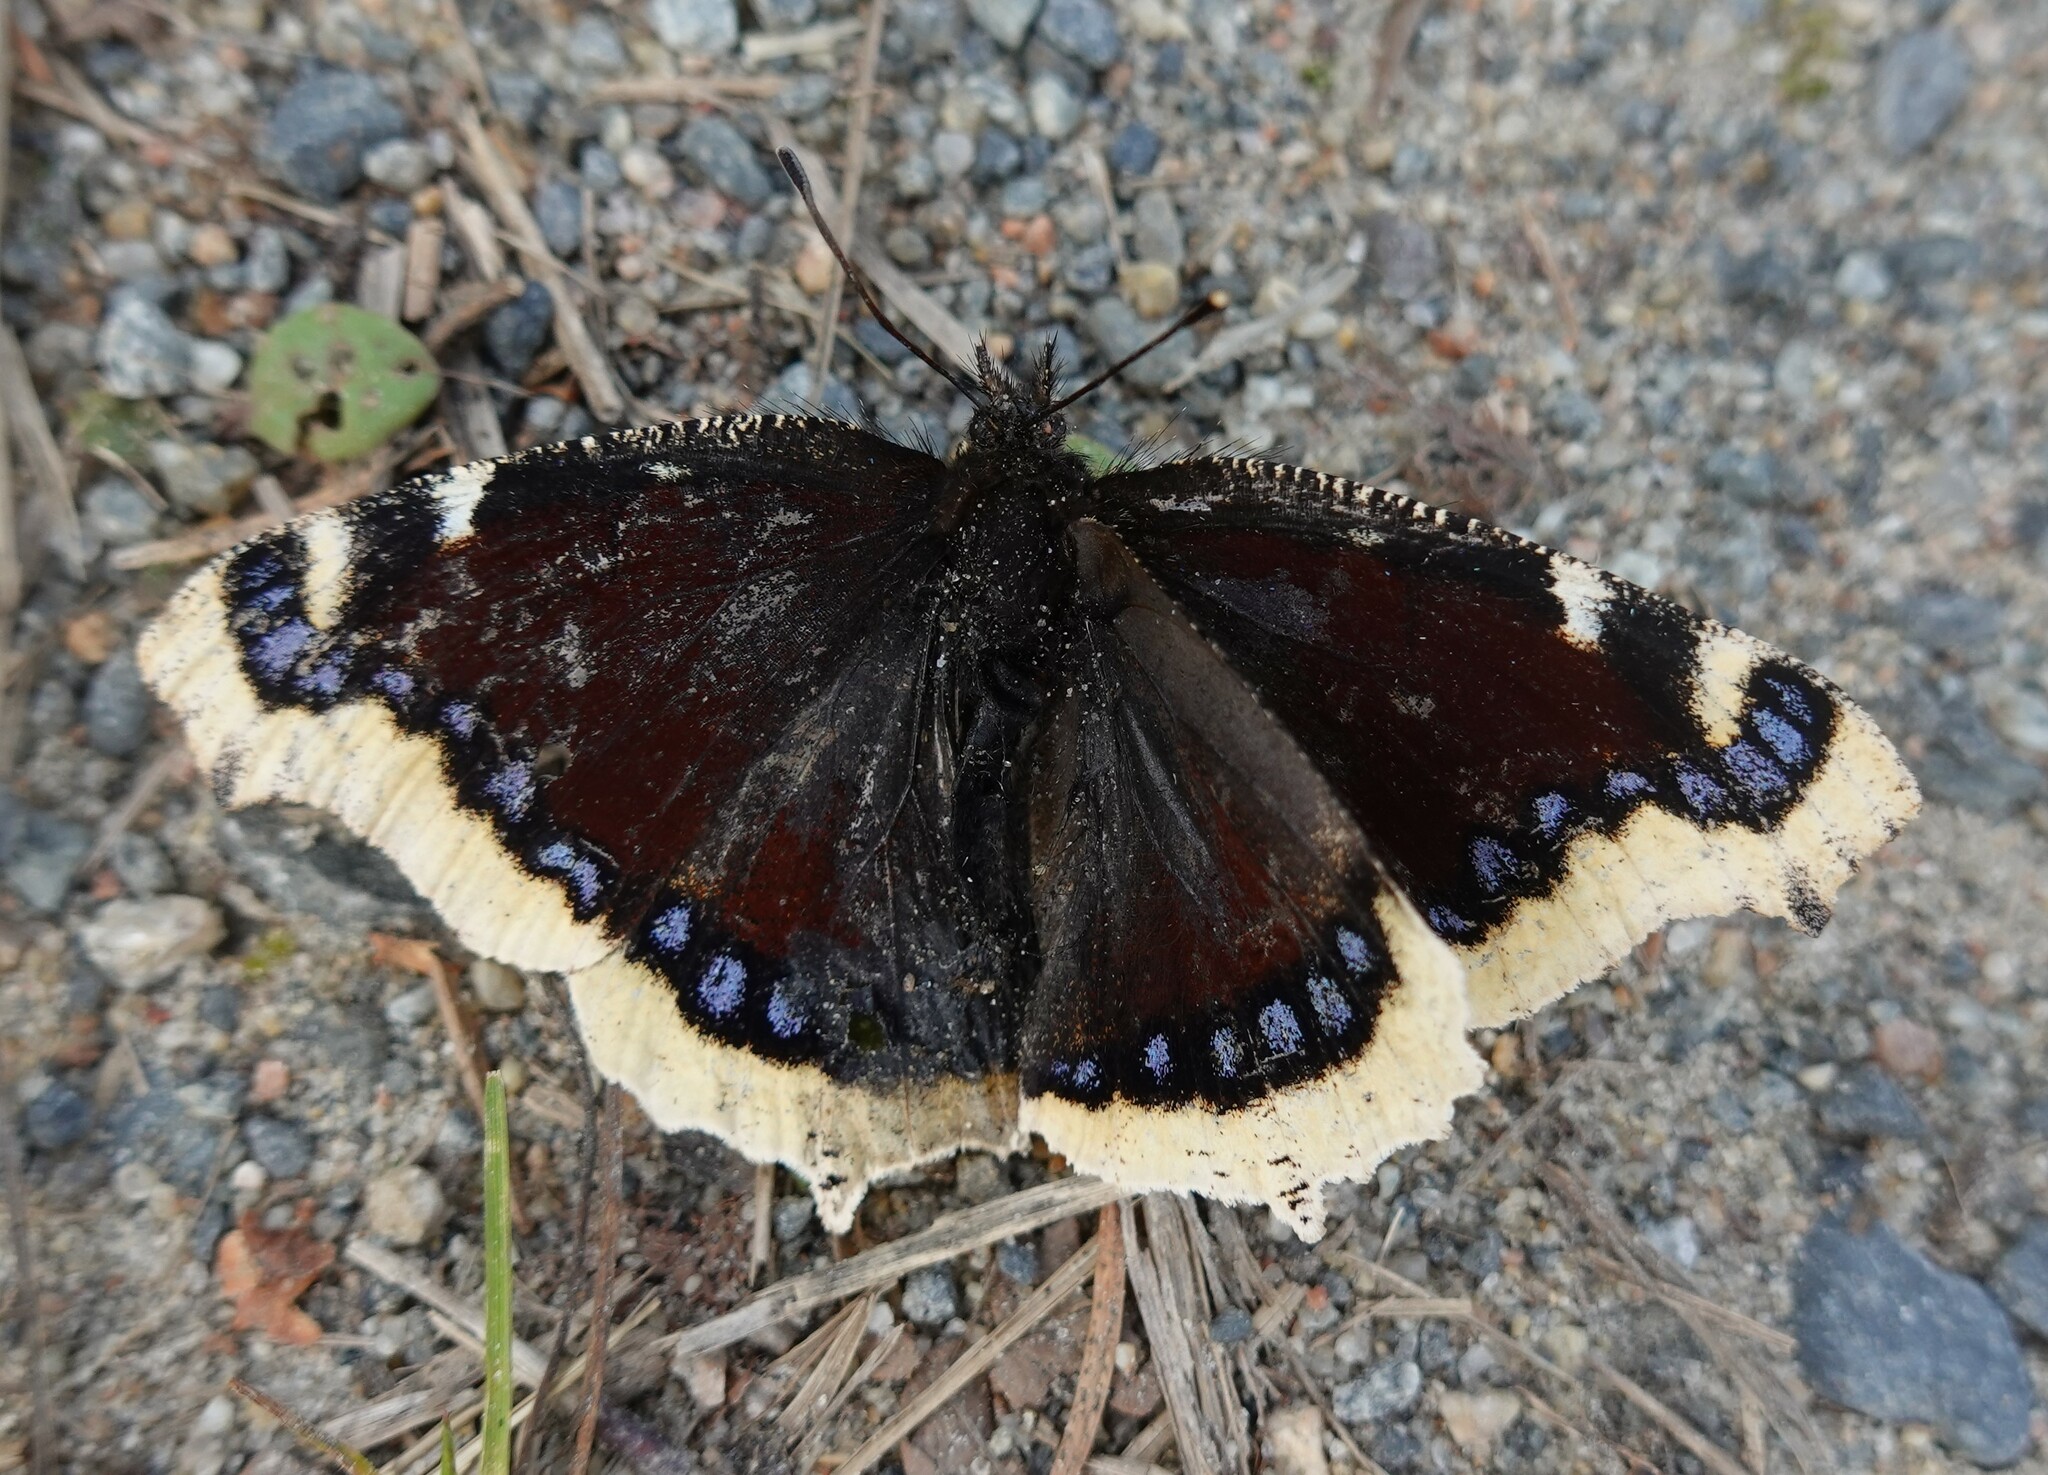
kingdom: Animalia
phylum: Arthropoda
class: Insecta
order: Lepidoptera
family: Nymphalidae
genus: Nymphalis
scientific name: Nymphalis antiopa
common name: Camberwell beauty
